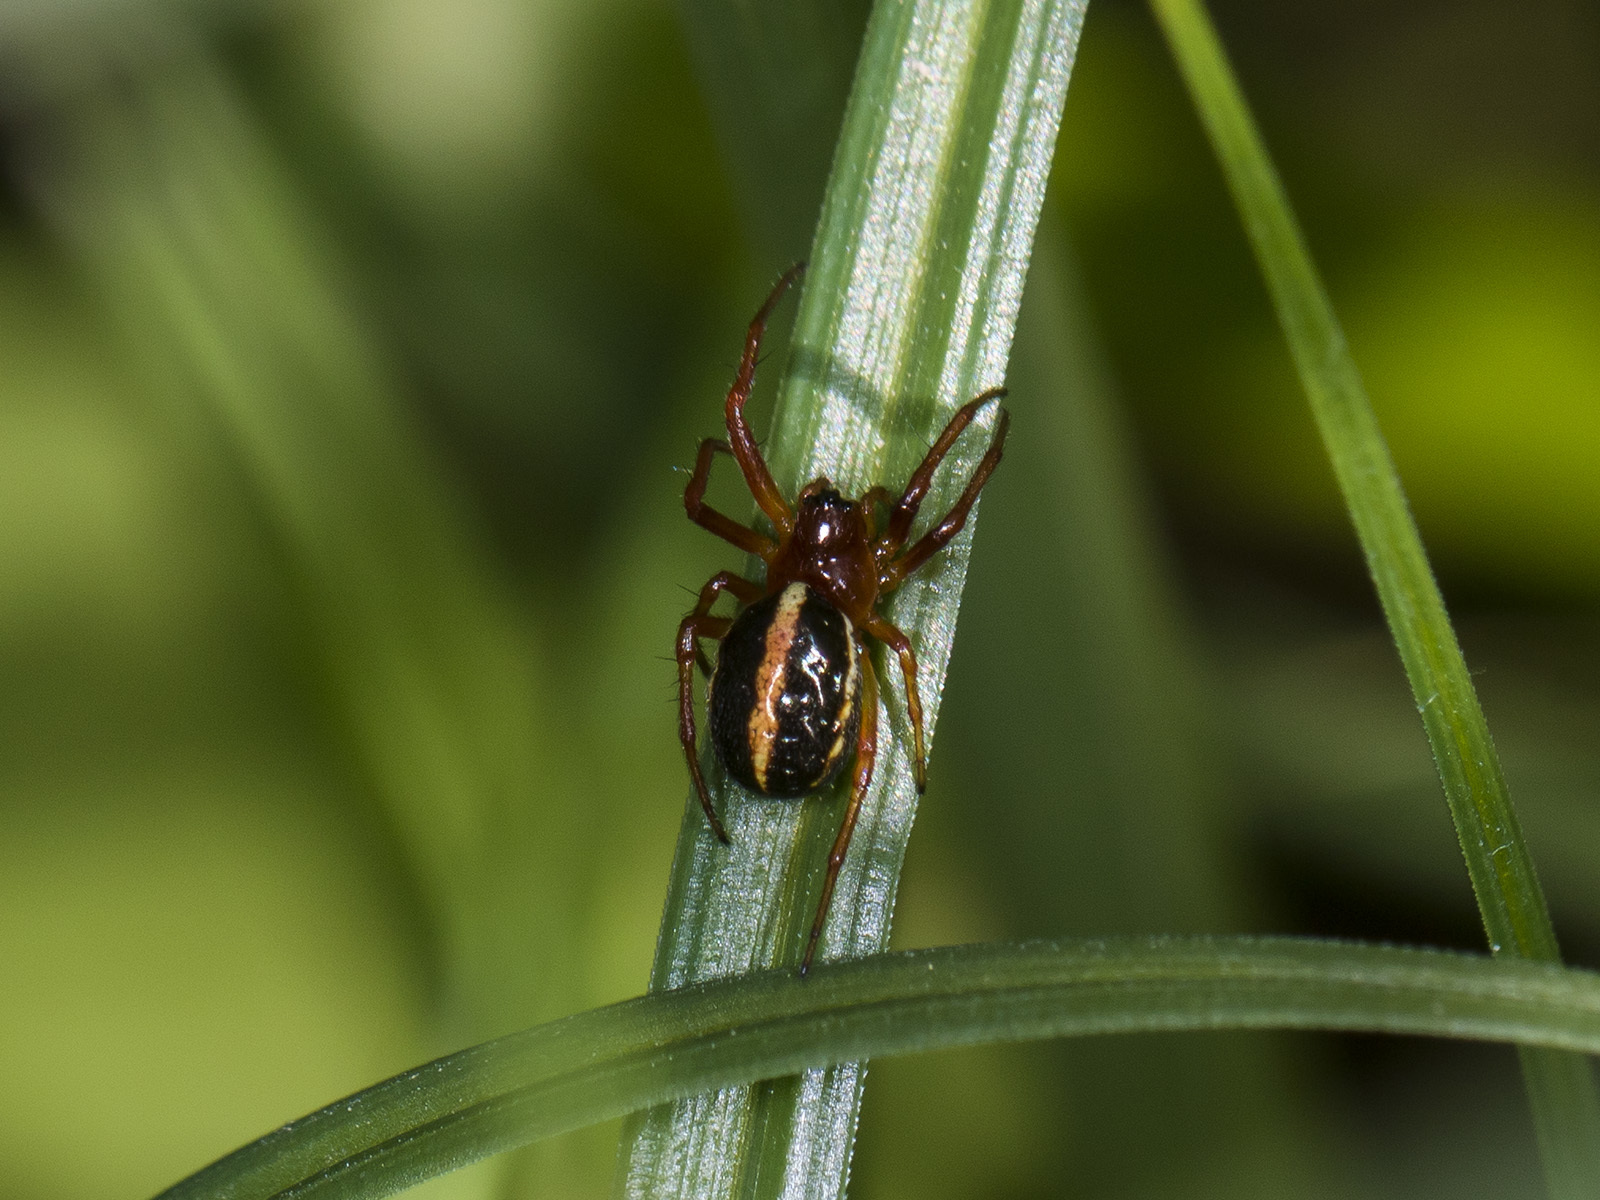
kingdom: Animalia
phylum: Arthropoda
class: Arachnida
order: Araneae
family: Araneidae
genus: Hypsosinga
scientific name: Hypsosinga pygmaea
